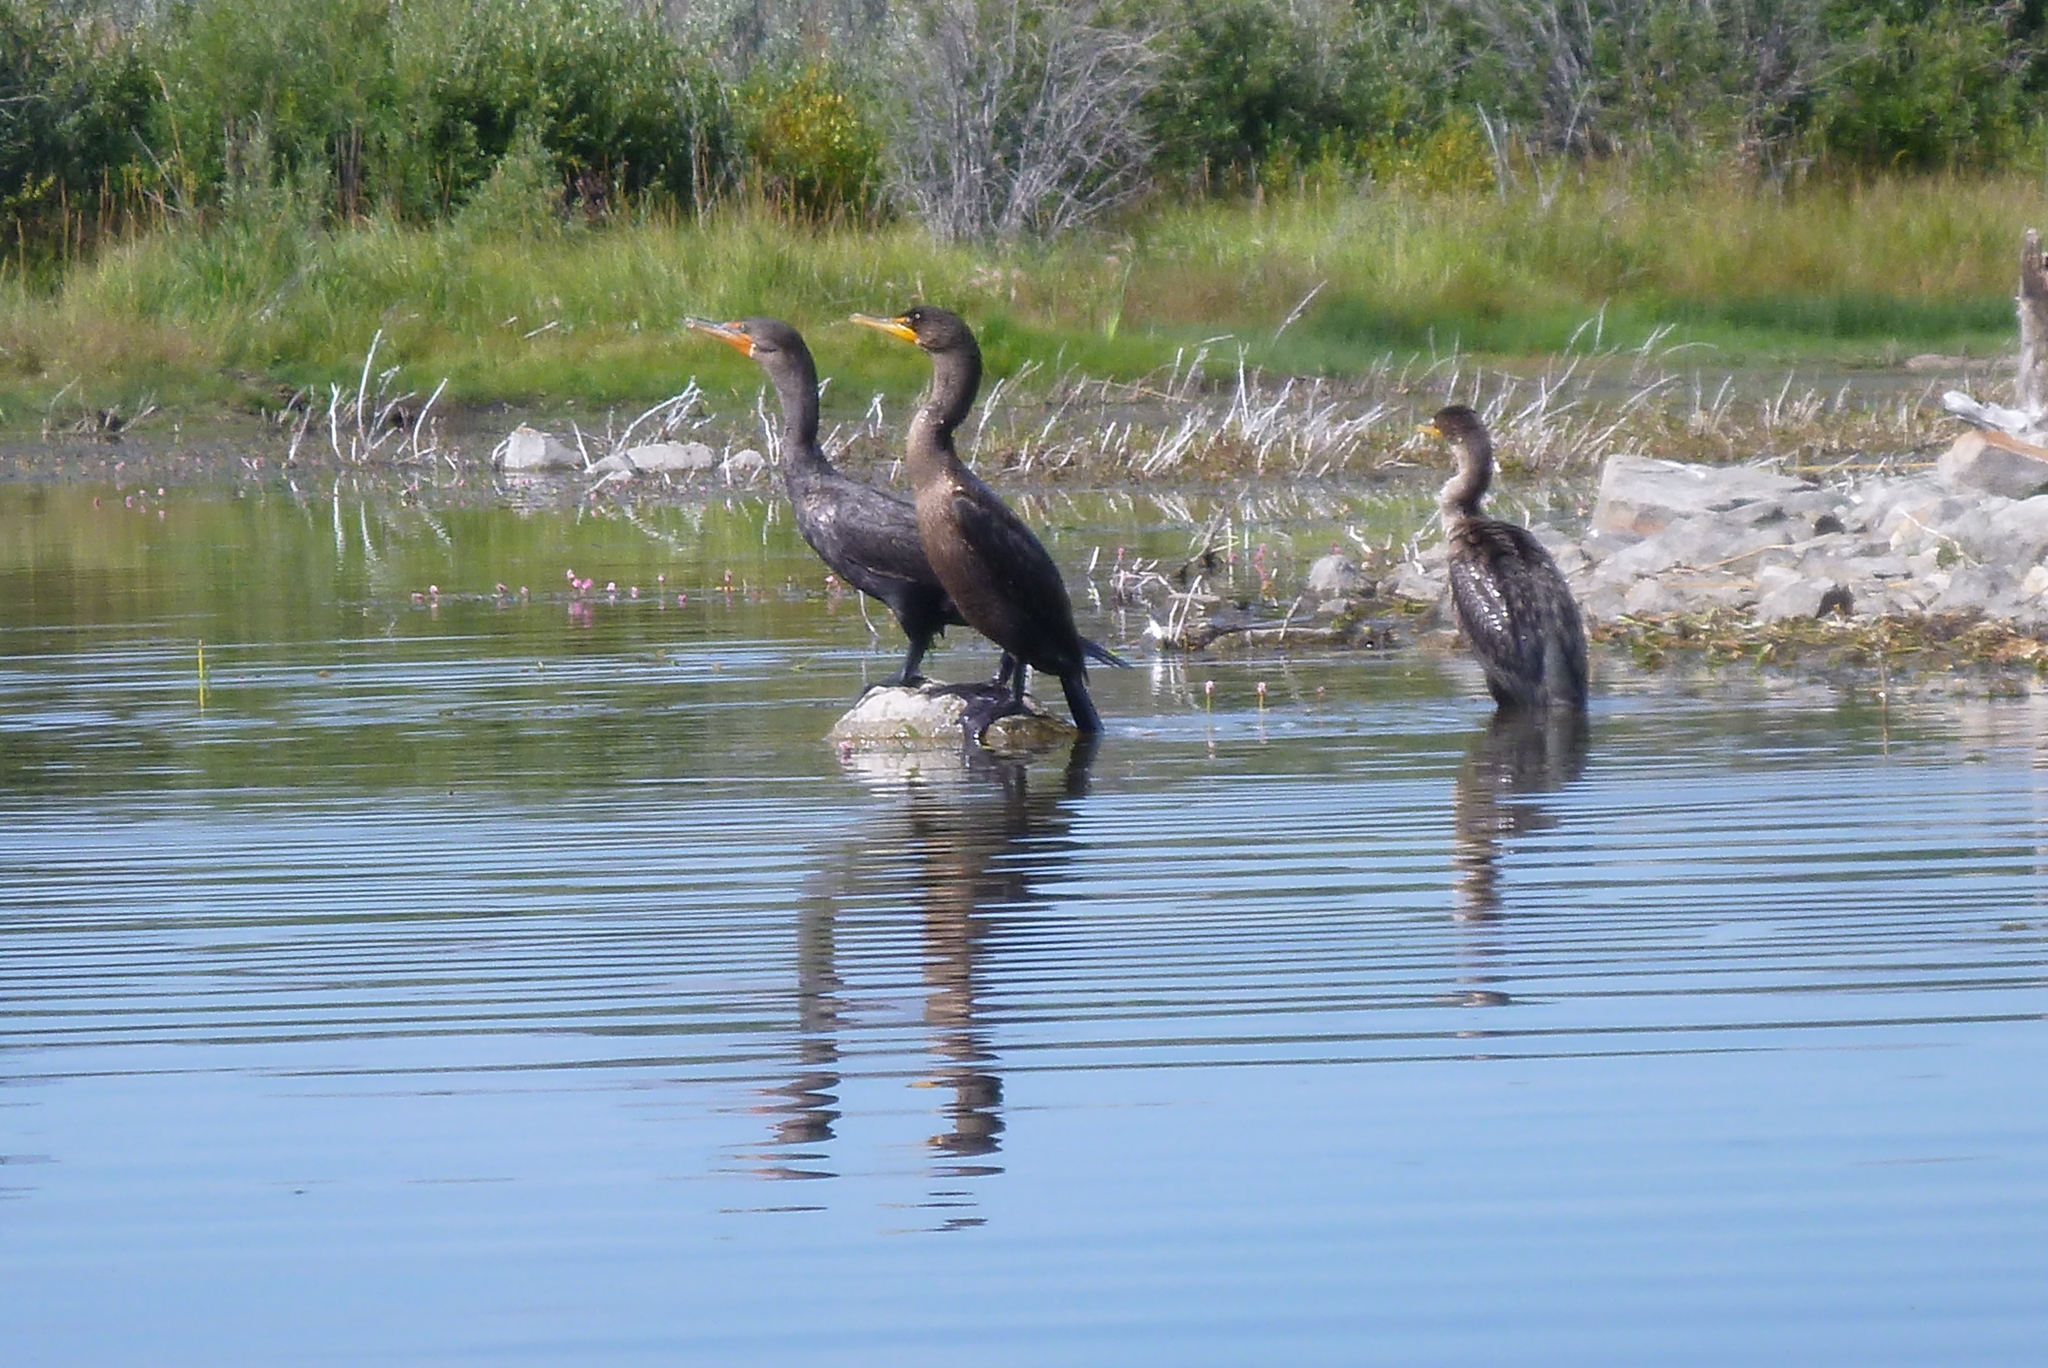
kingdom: Animalia
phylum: Chordata
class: Aves
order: Suliformes
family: Phalacrocoracidae
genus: Phalacrocorax
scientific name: Phalacrocorax auritus
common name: Double-crested cormorant
